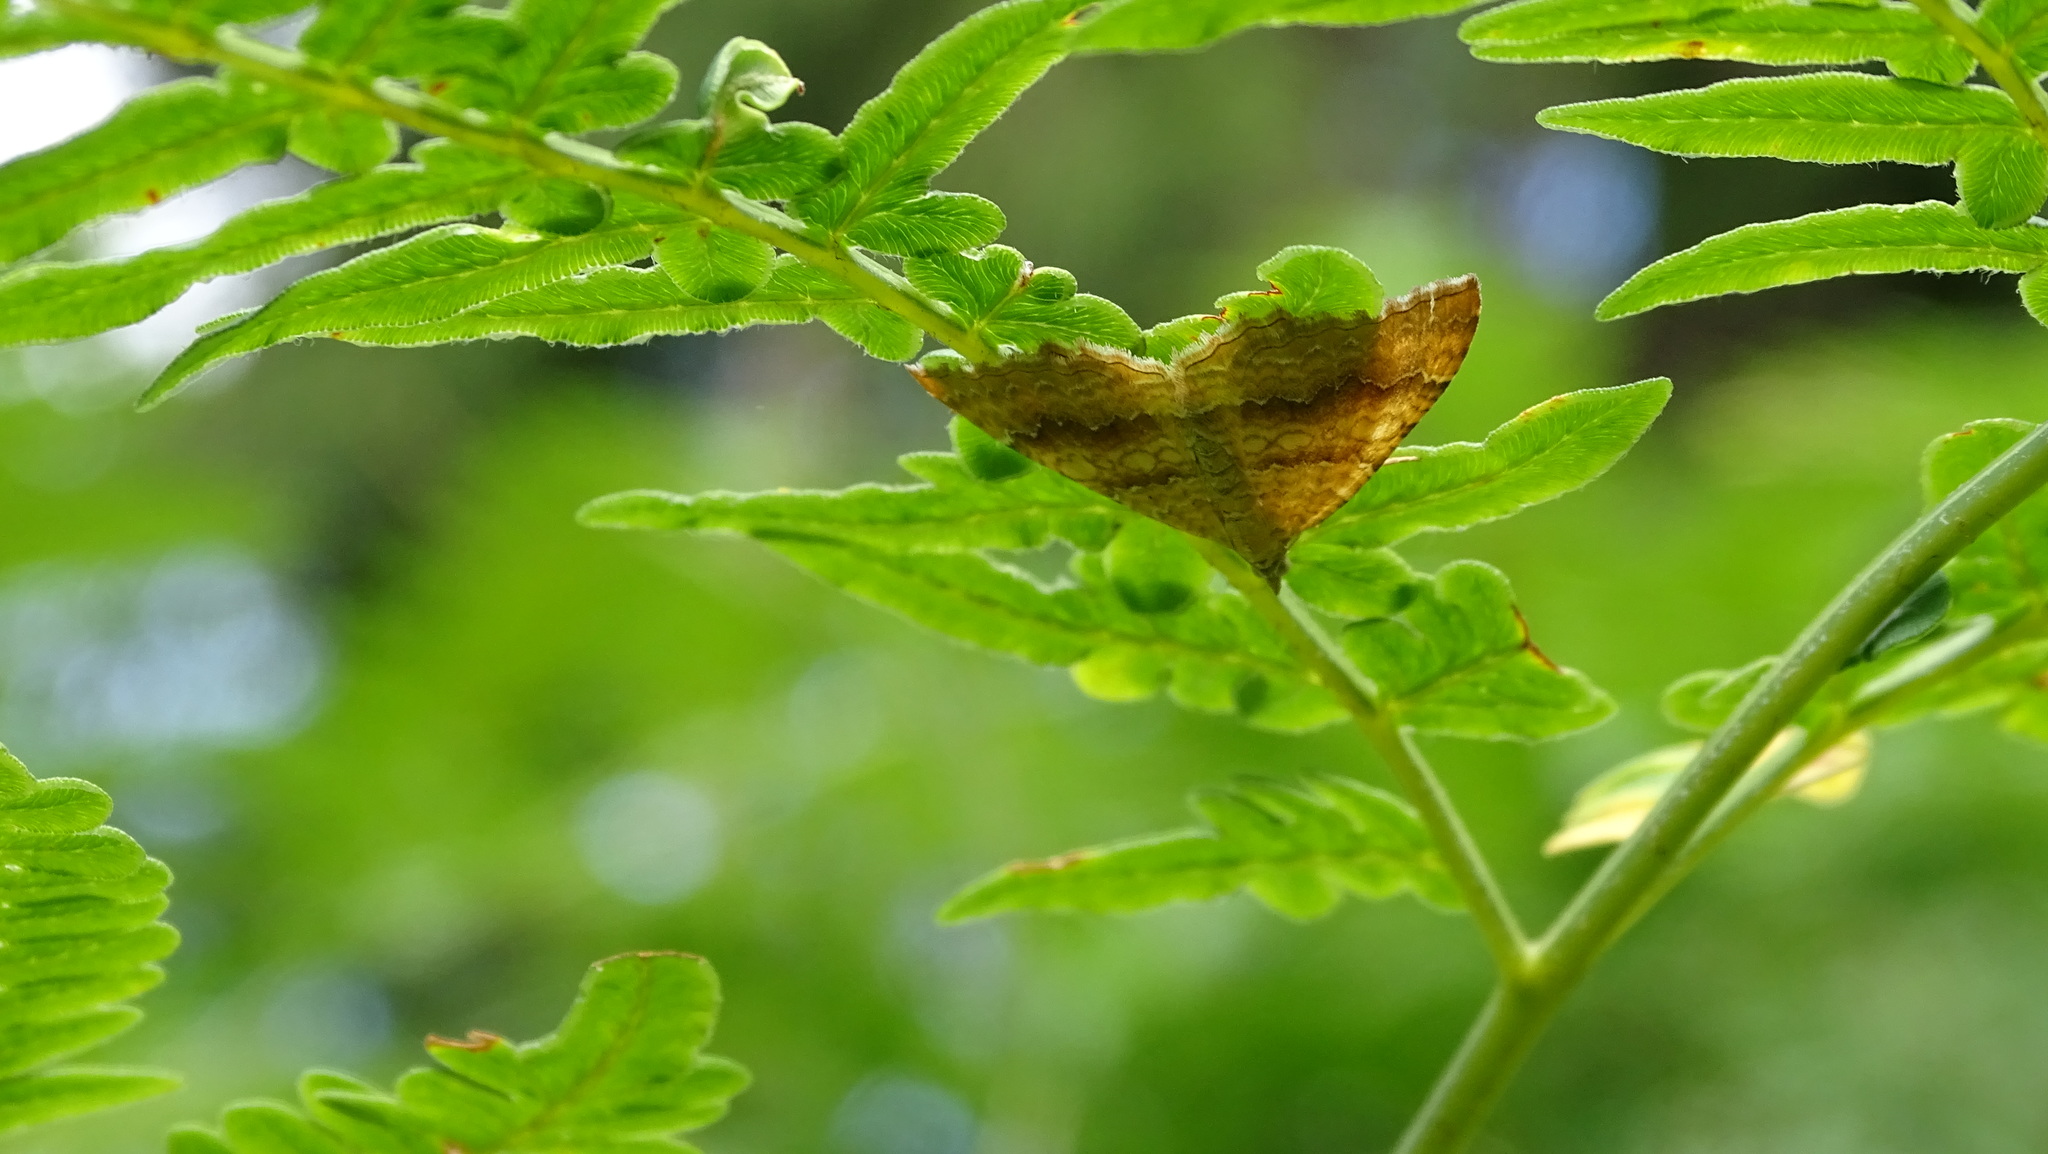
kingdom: Animalia
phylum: Arthropoda
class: Insecta
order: Lepidoptera
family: Geometridae
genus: Camptogramma
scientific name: Camptogramma bilineata
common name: Yellow shell
